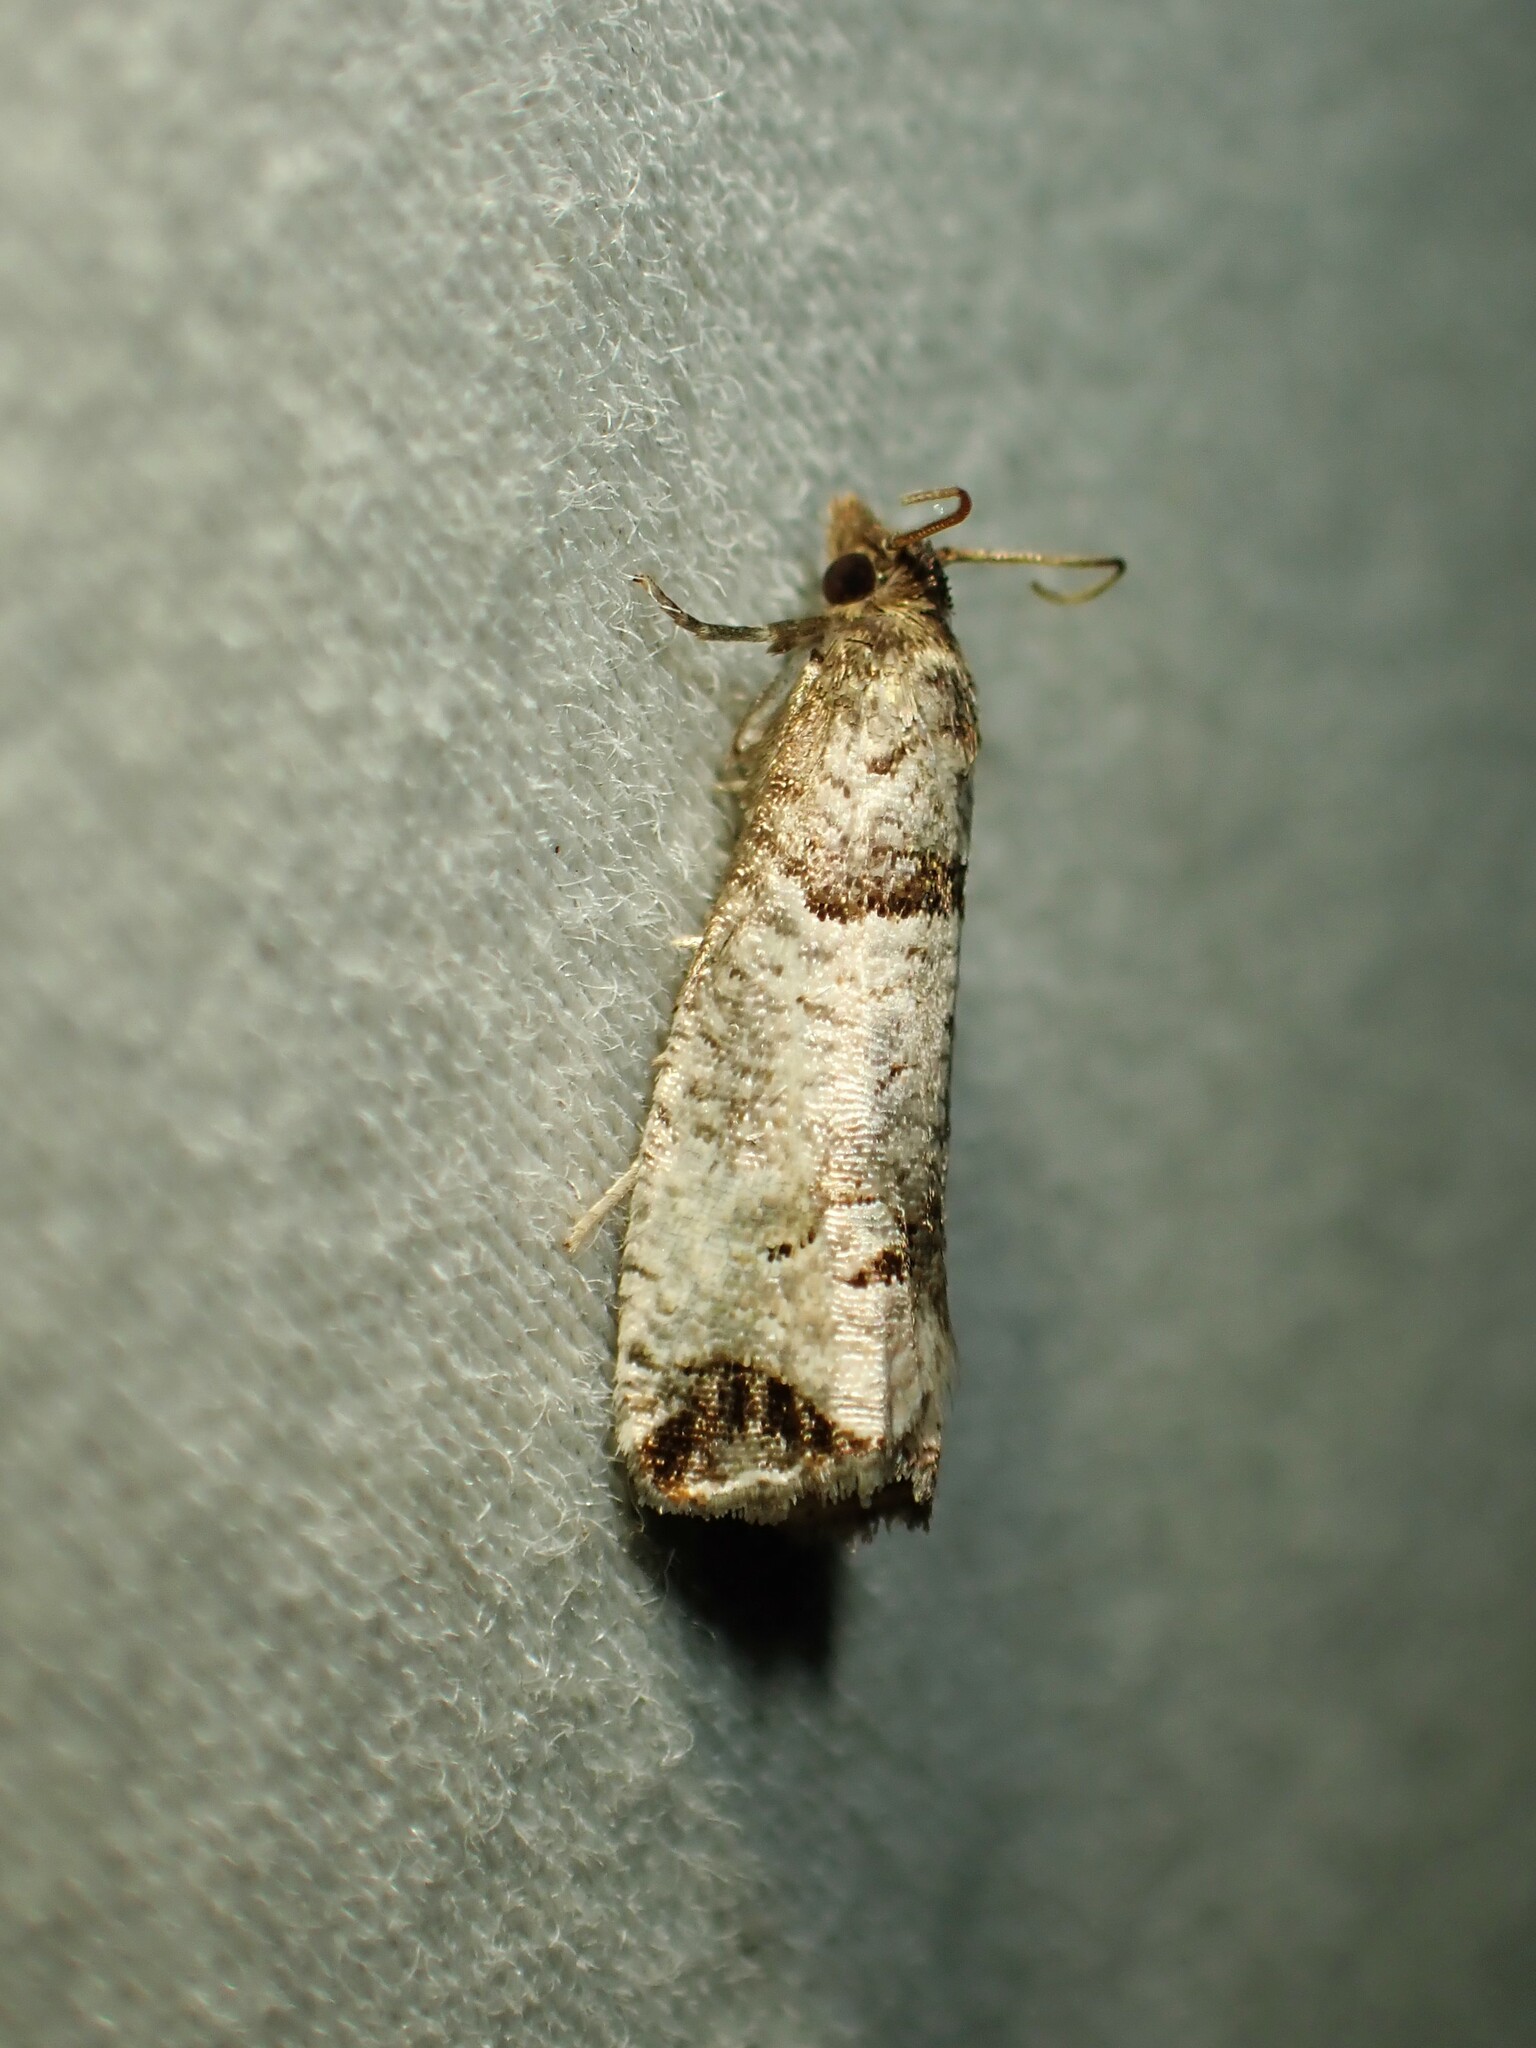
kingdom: Animalia
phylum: Arthropoda
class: Insecta
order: Lepidoptera
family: Tortricidae
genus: Notocelia
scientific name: Notocelia culminana
